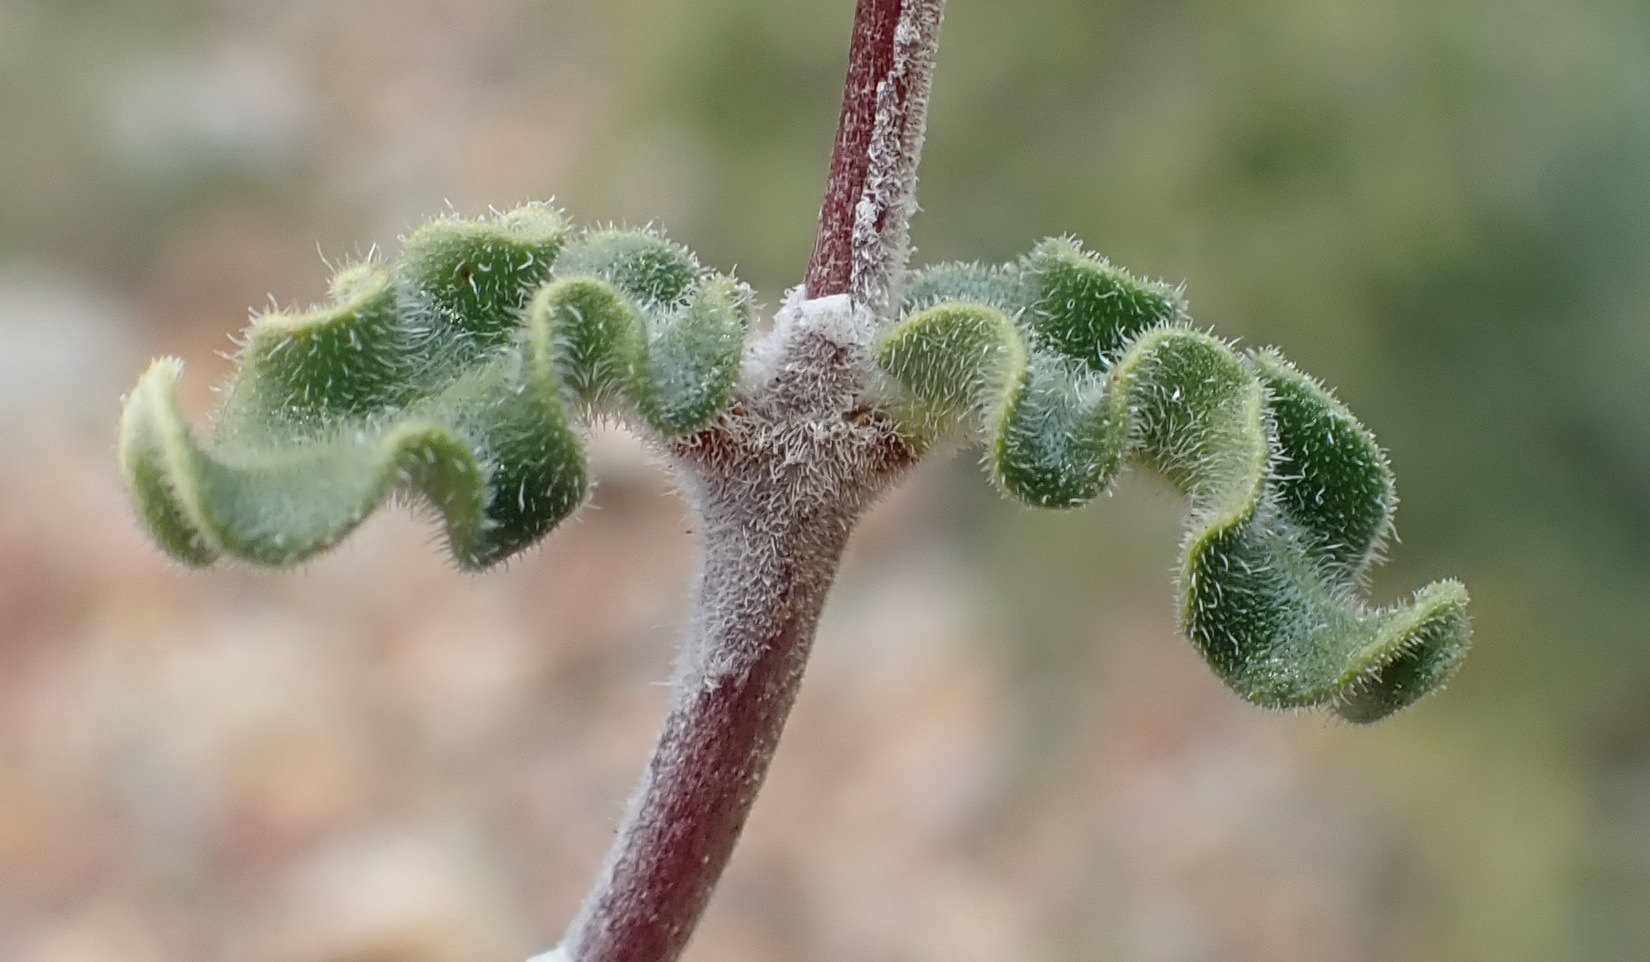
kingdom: Plantae
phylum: Tracheophyta
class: Magnoliopsida
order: Gentianales
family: Apocynaceae
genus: Fockea
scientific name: Fockea capensis
